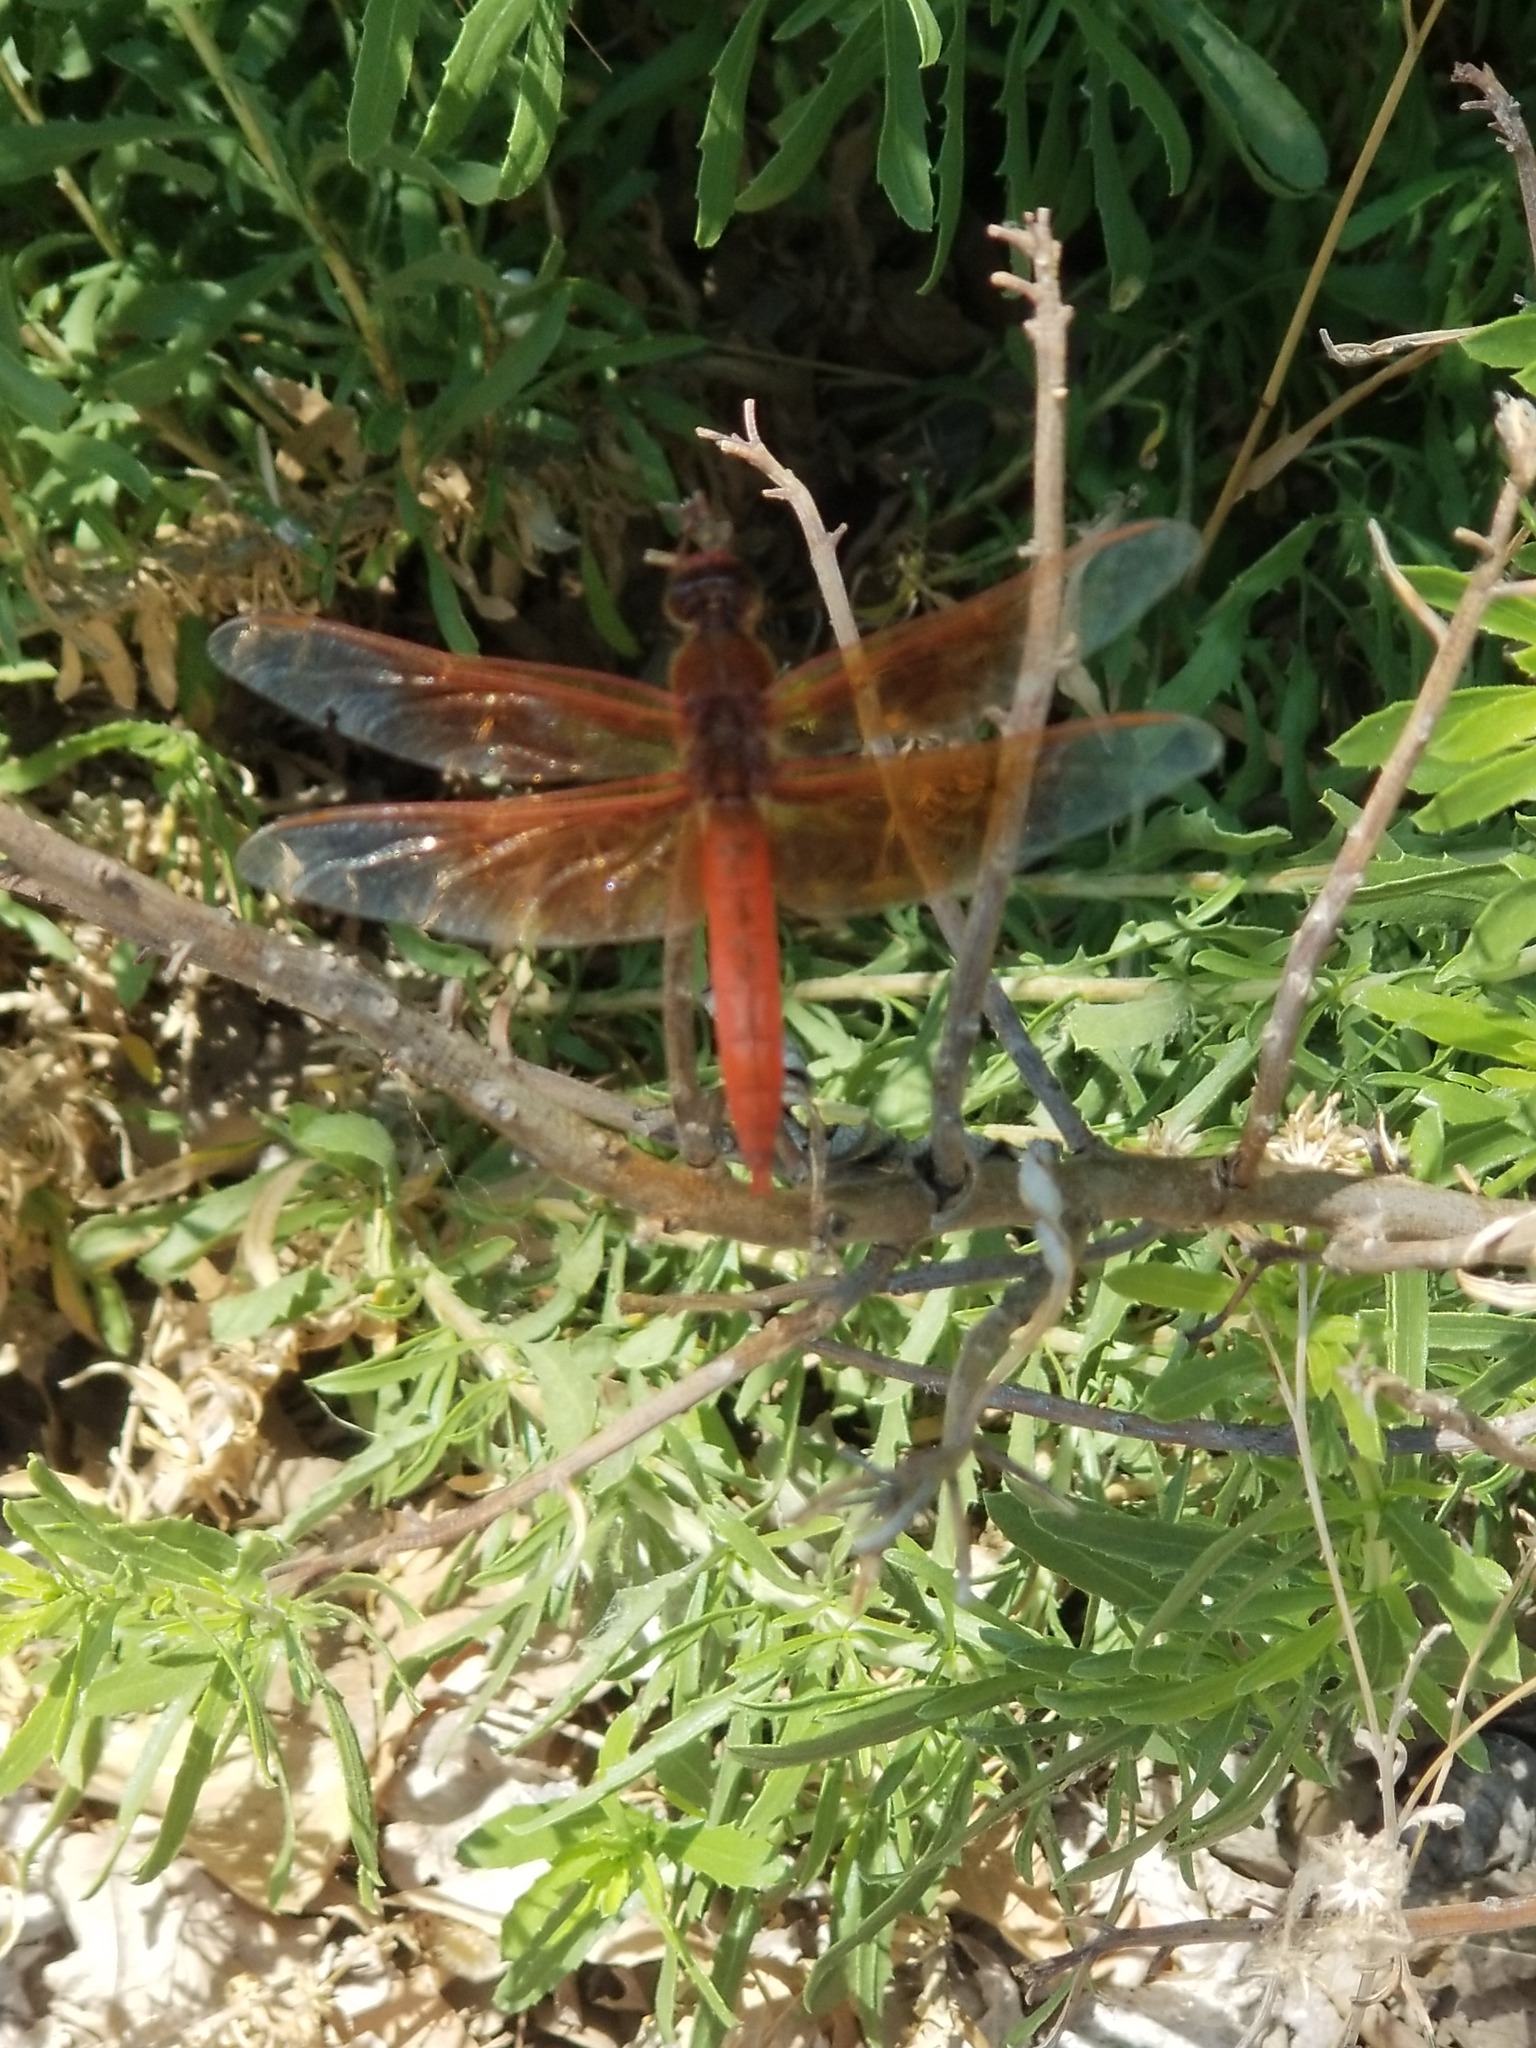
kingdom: Animalia
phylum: Arthropoda
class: Insecta
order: Odonata
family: Libellulidae
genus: Libellula
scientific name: Libellula saturata
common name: Flame skimmer
